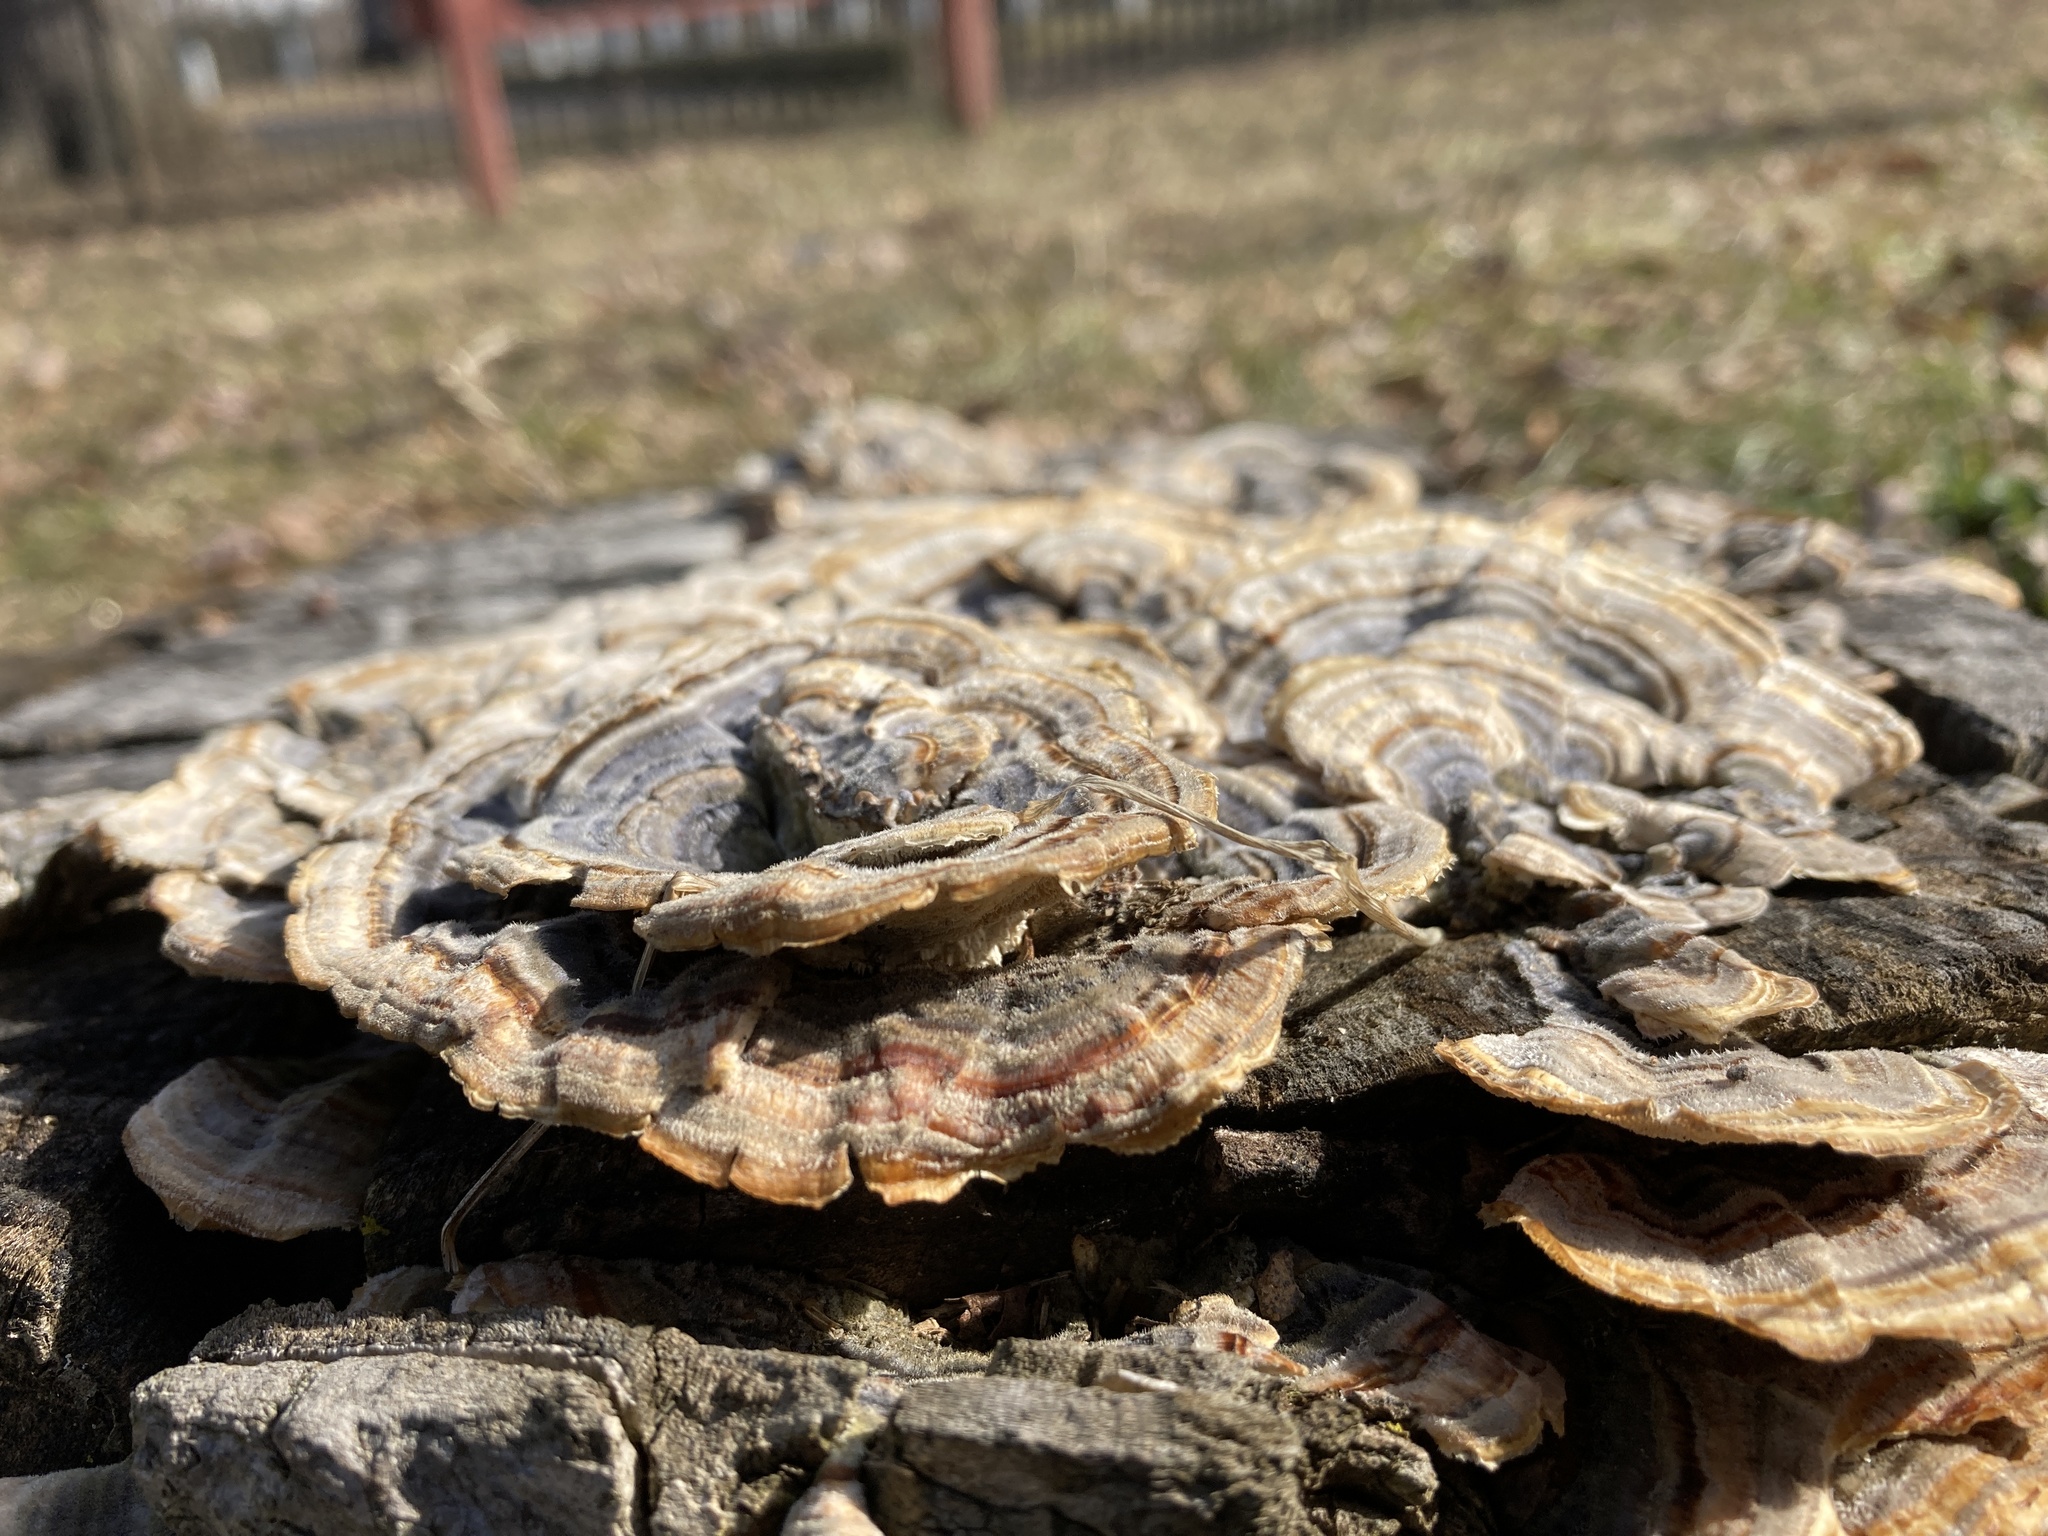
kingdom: Fungi
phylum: Basidiomycota
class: Agaricomycetes
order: Polyporales
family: Polyporaceae
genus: Trametes
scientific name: Trametes versicolor
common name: Turkeytail
